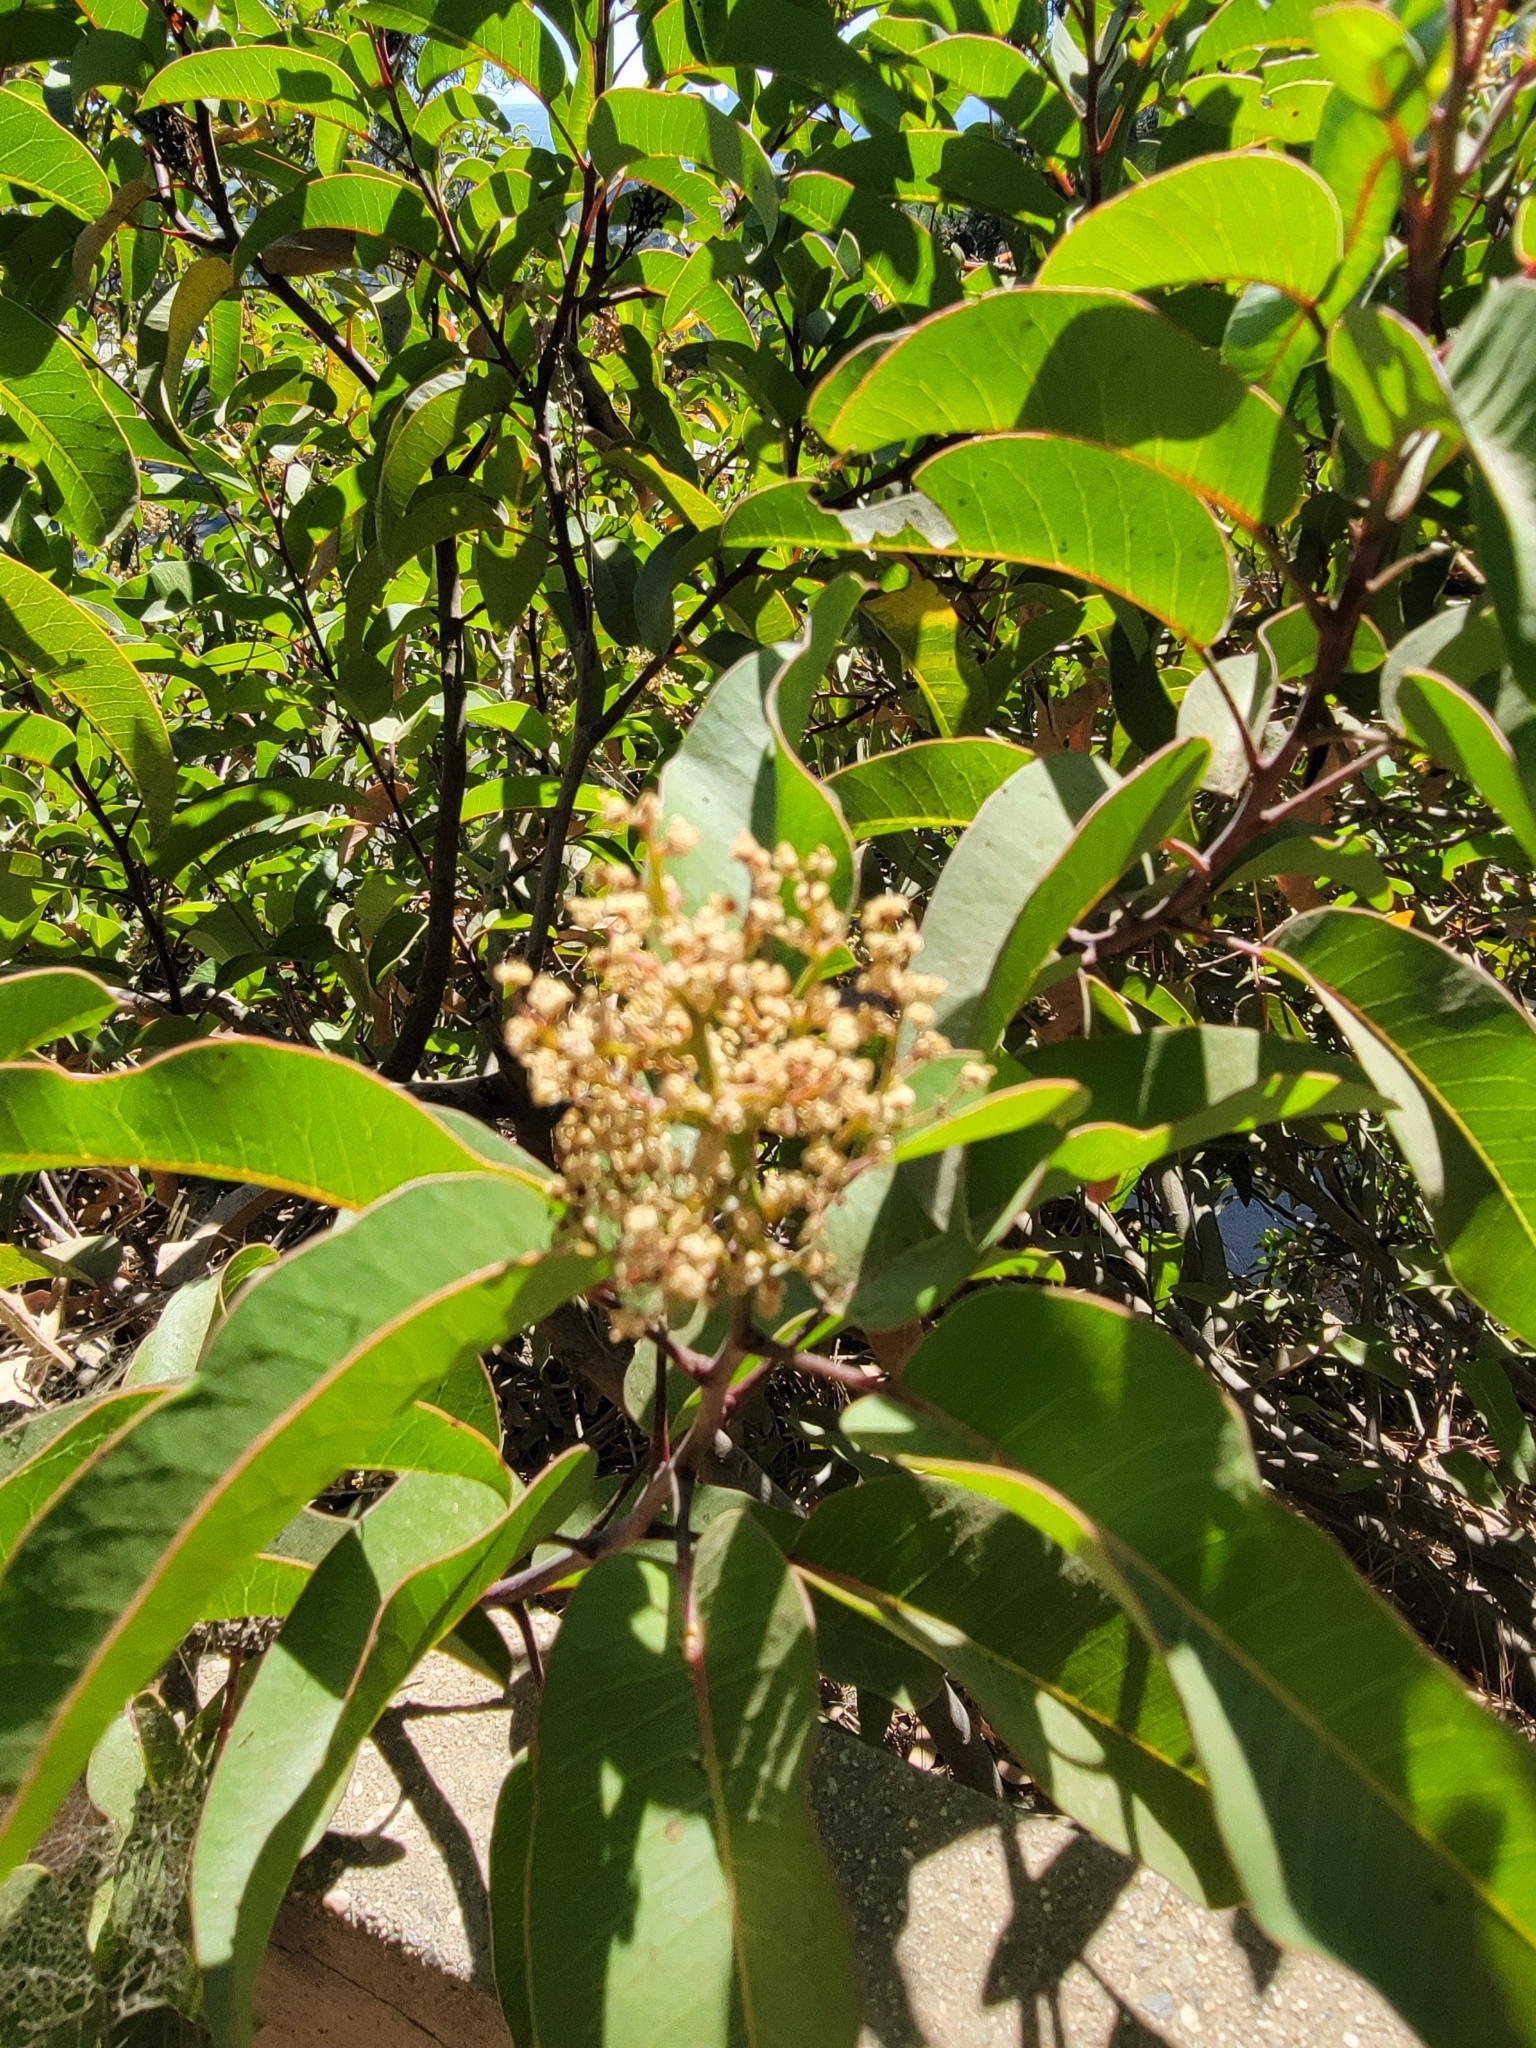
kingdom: Plantae
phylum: Tracheophyta
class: Magnoliopsida
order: Sapindales
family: Anacardiaceae
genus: Malosma
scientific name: Malosma laurina
